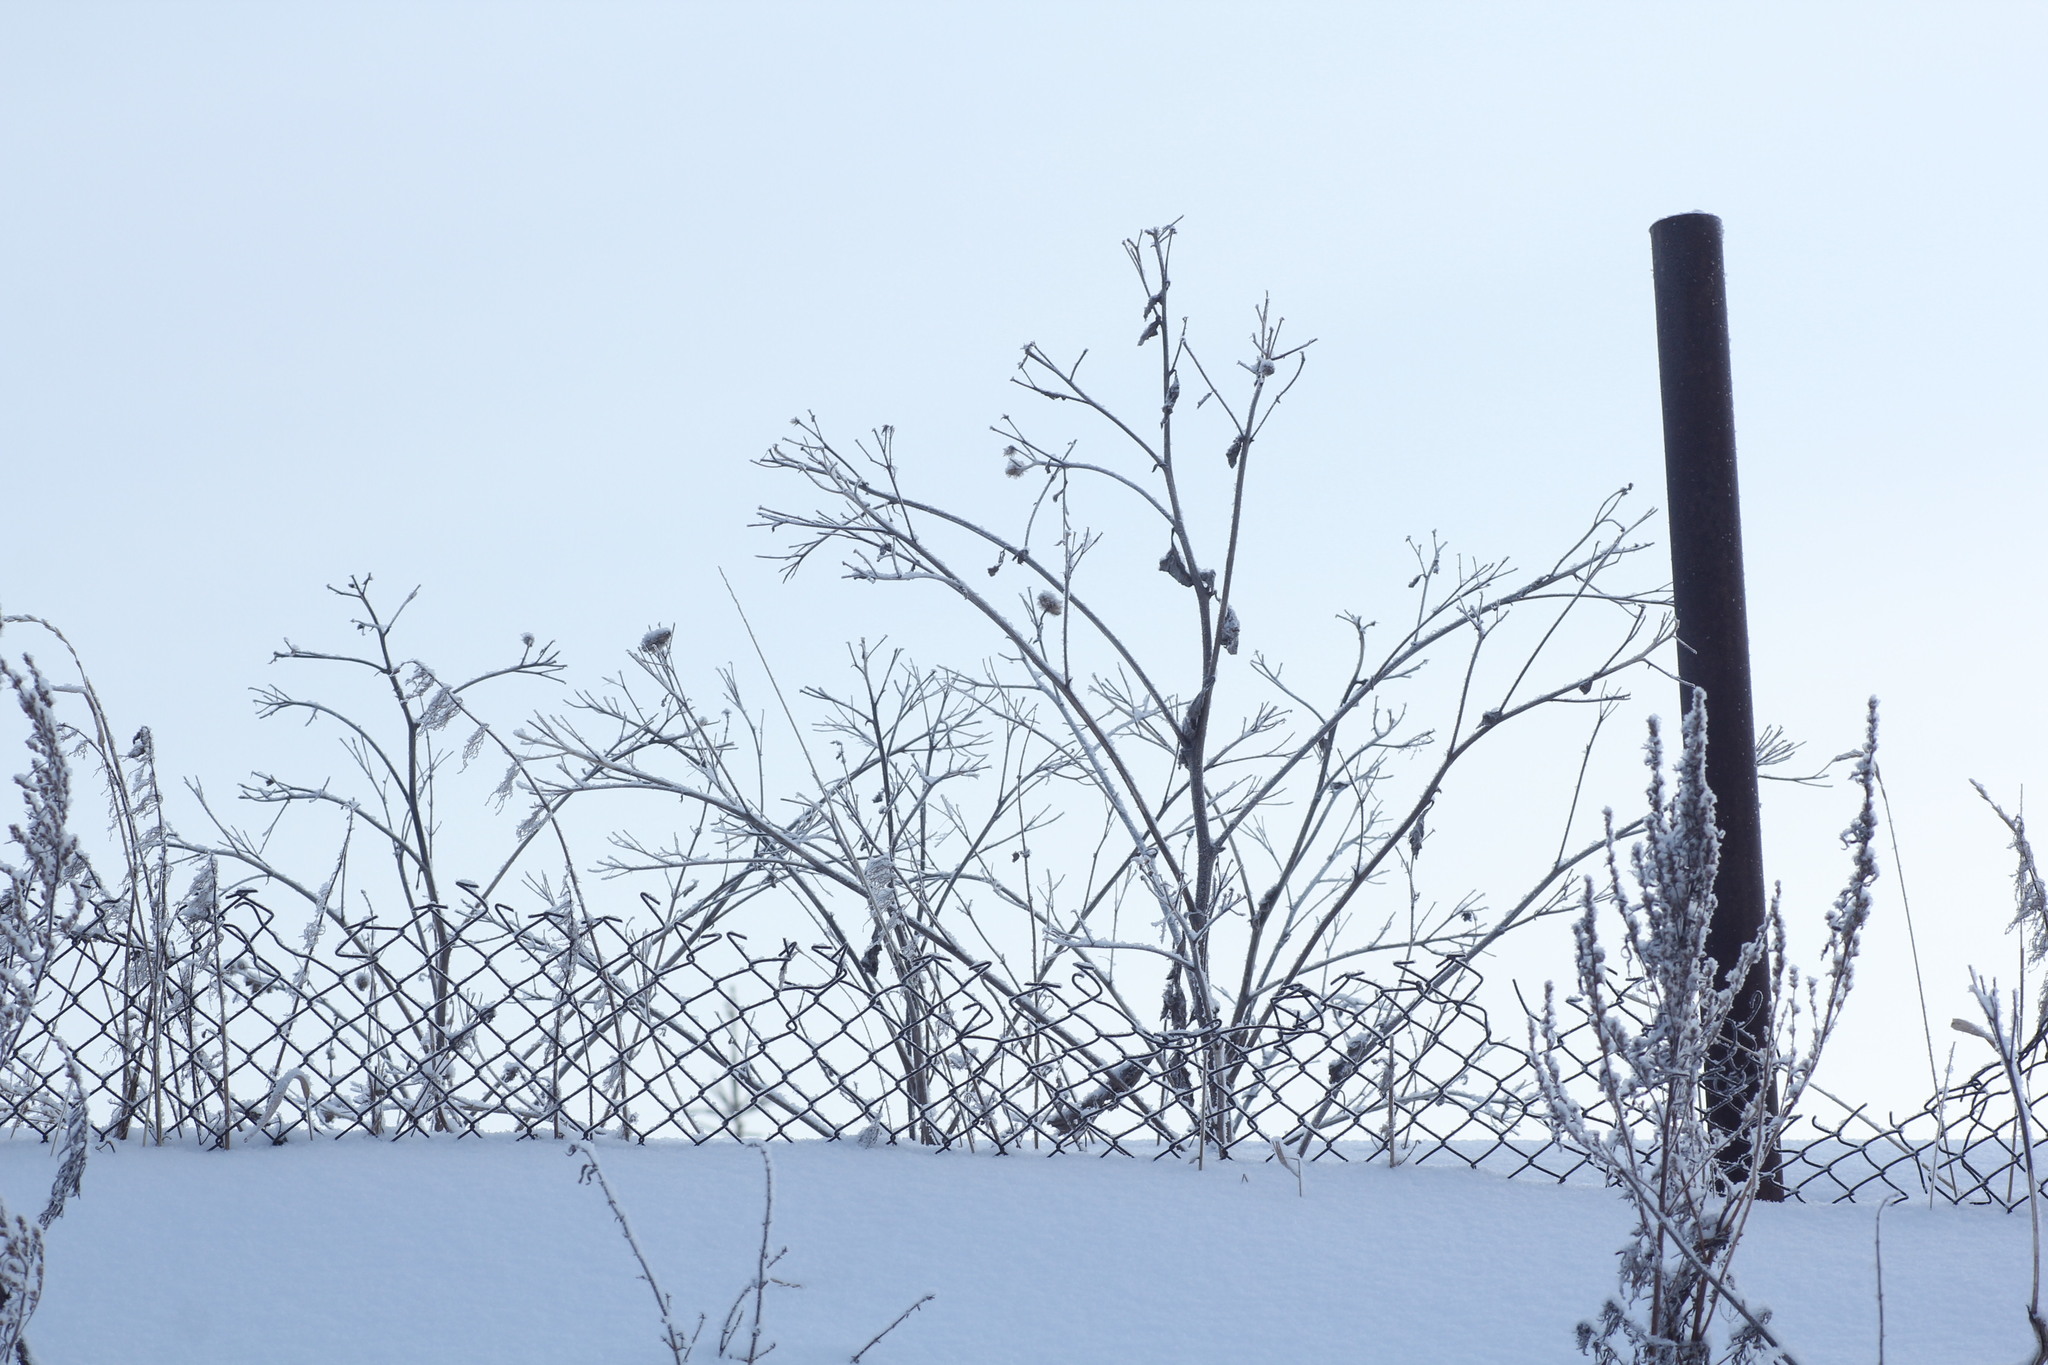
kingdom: Plantae
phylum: Tracheophyta
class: Magnoliopsida
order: Asterales
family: Asteraceae
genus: Arctium
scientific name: Arctium tomentosum
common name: Woolly burdock
